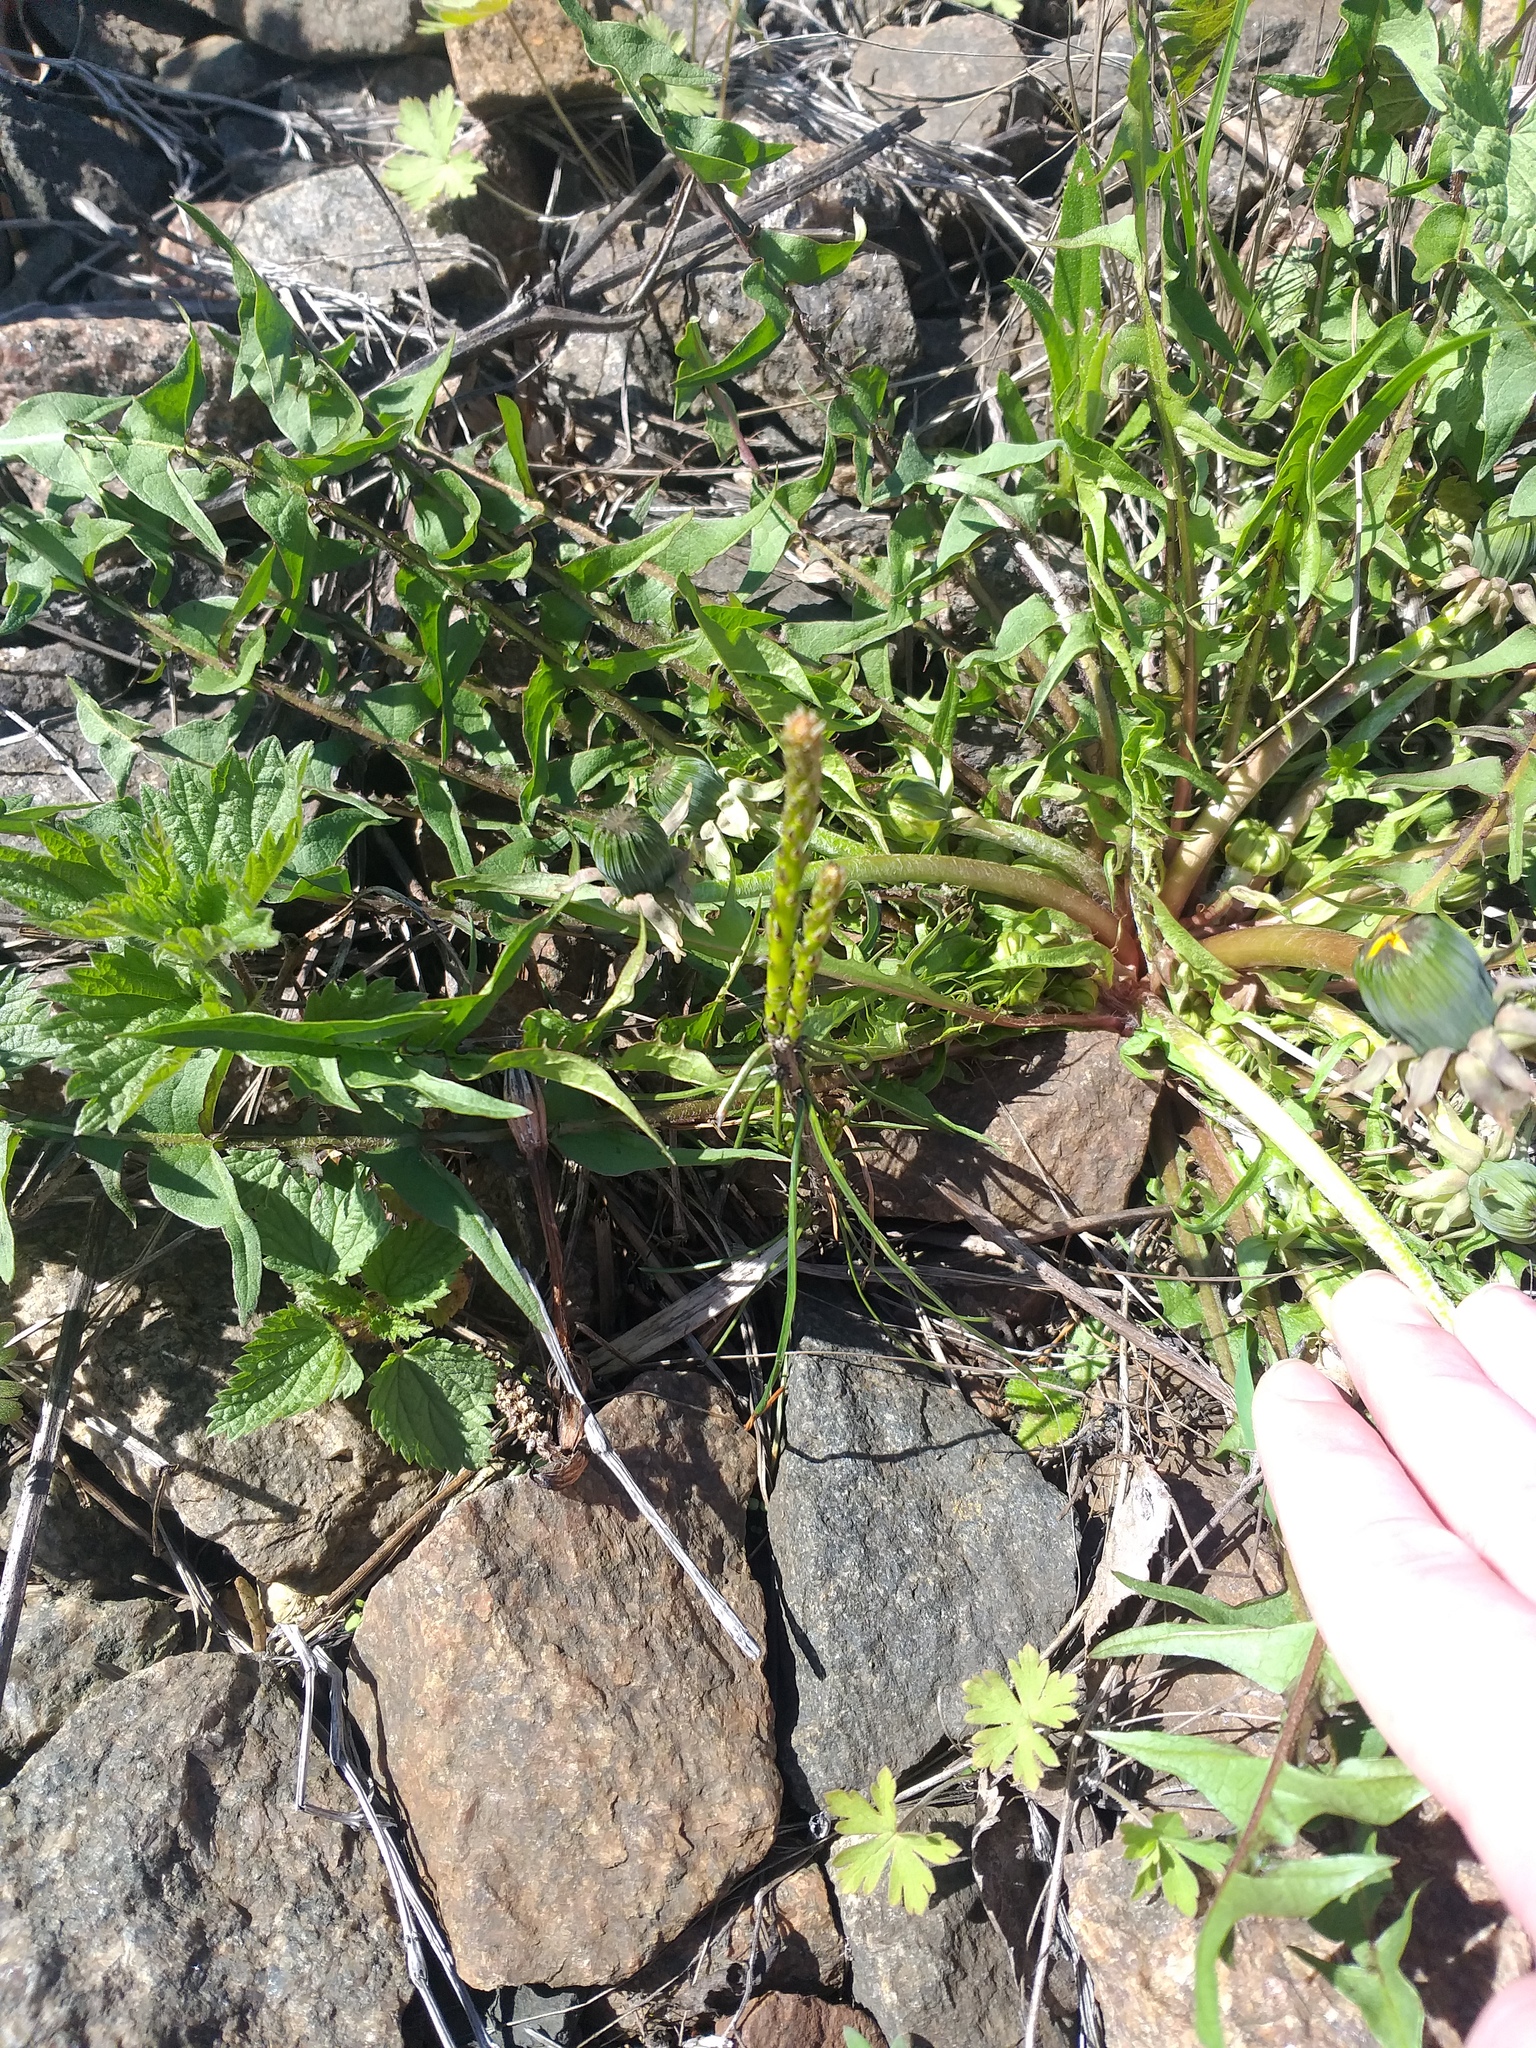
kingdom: Plantae
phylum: Tracheophyta
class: Pinopsida
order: Pinales
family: Pinaceae
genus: Pinus
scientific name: Pinus sylvestris
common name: Scots pine
